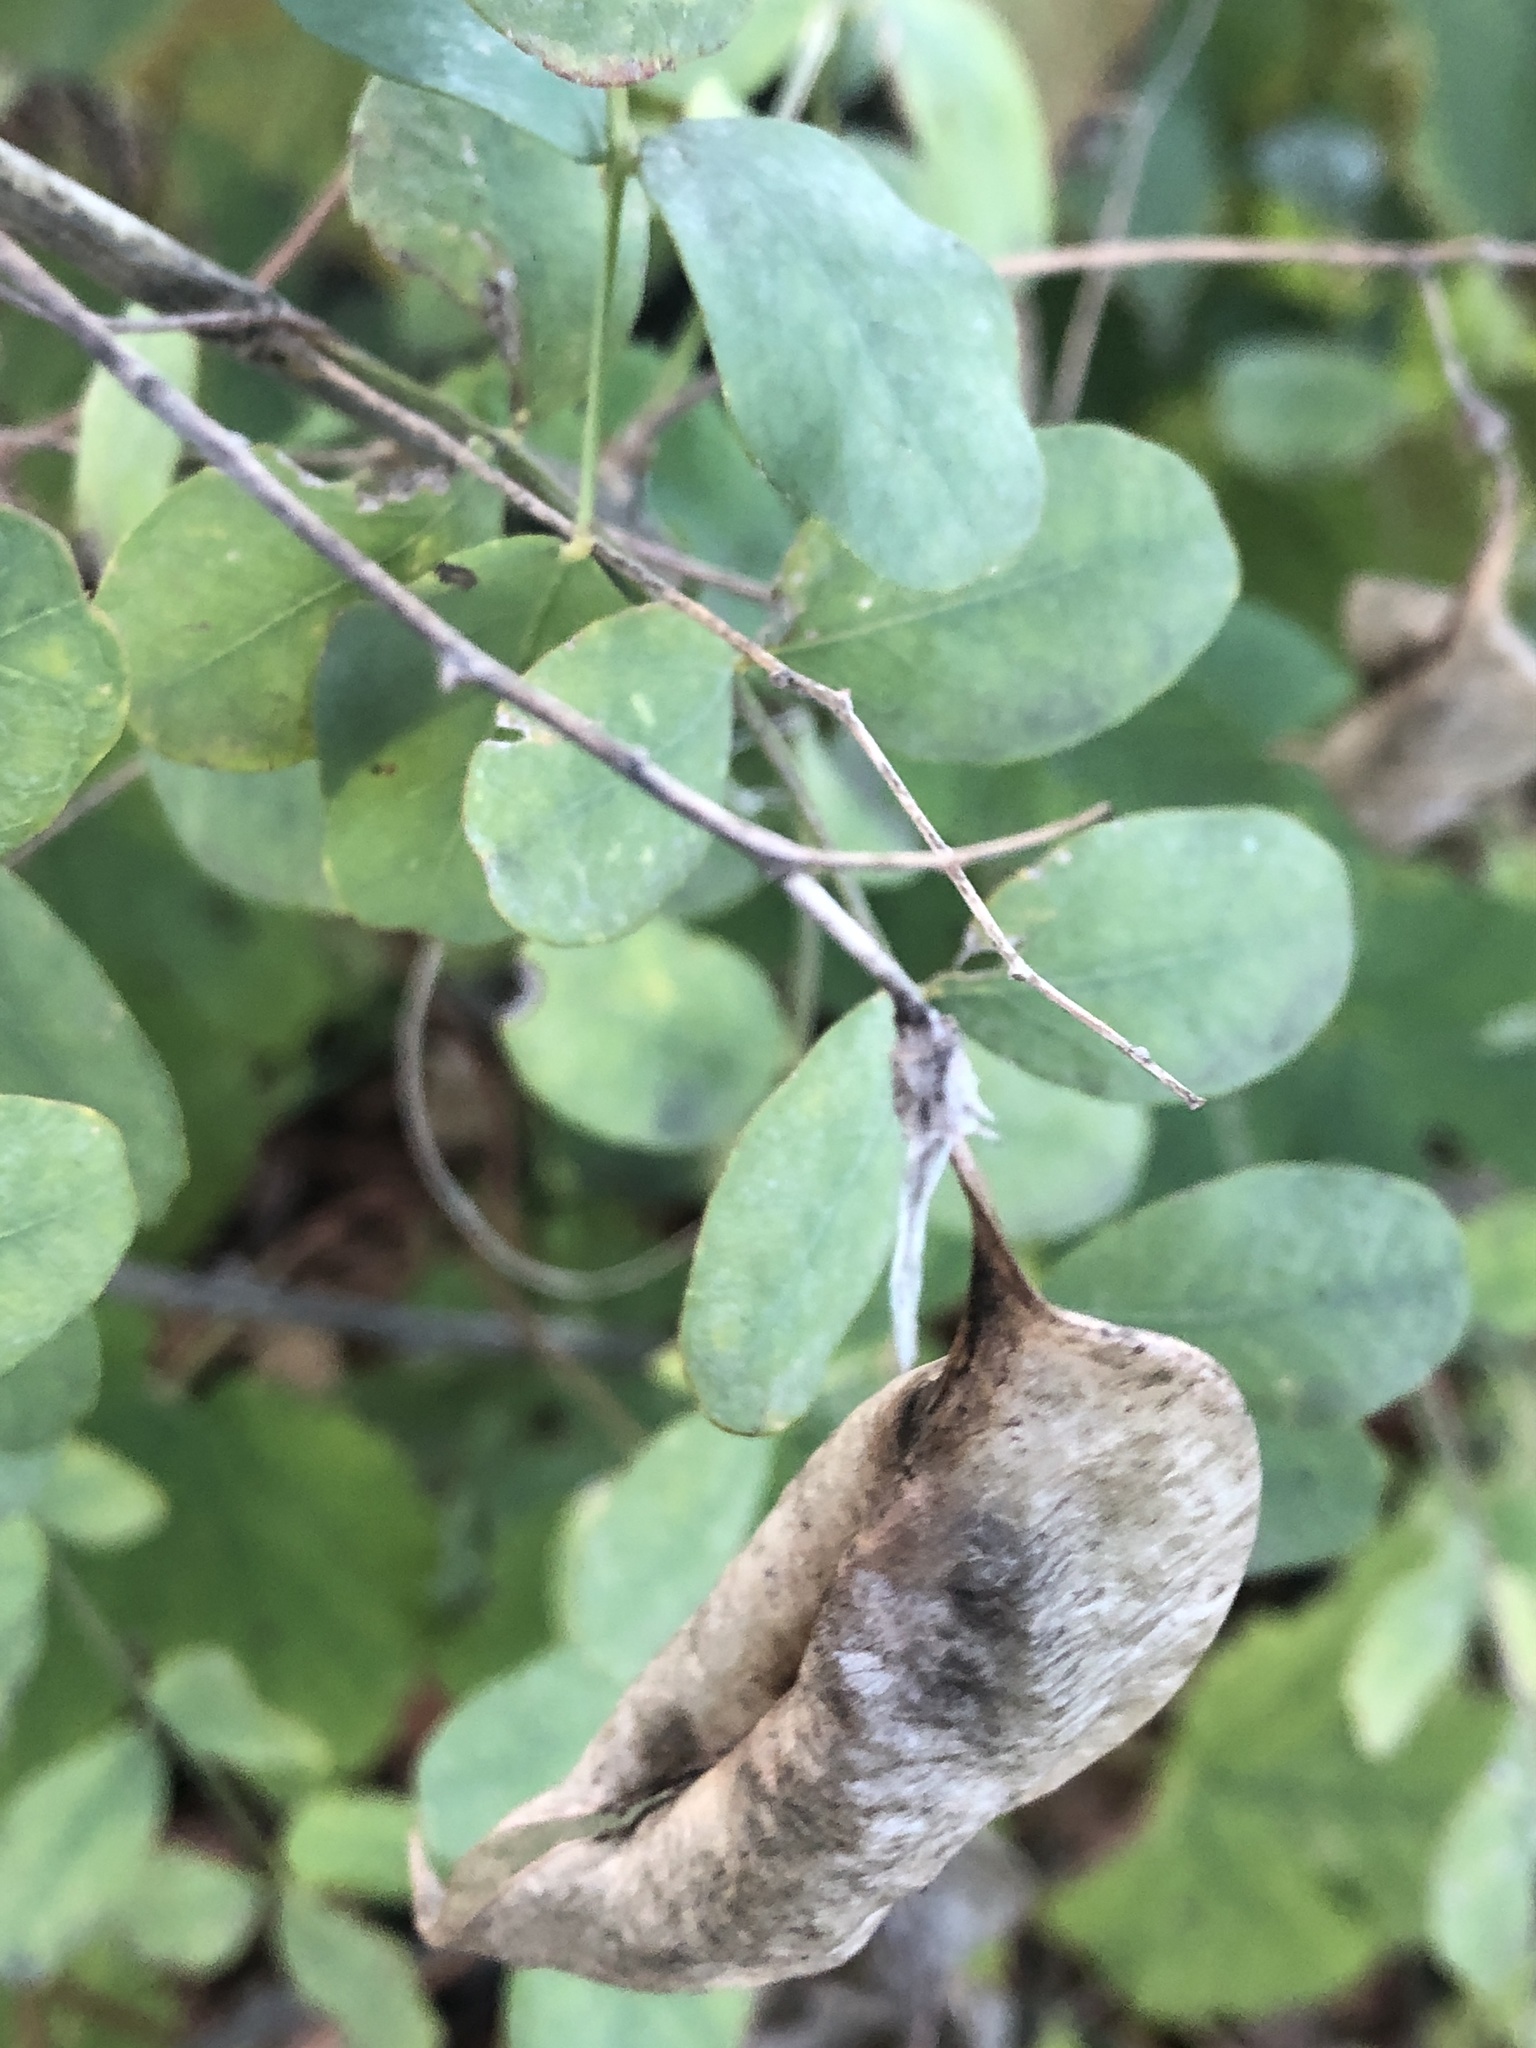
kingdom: Plantae
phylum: Tracheophyta
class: Magnoliopsida
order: Fabales
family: Fabaceae
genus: Colutea
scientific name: Colutea arborescens
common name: Bladder-senna
